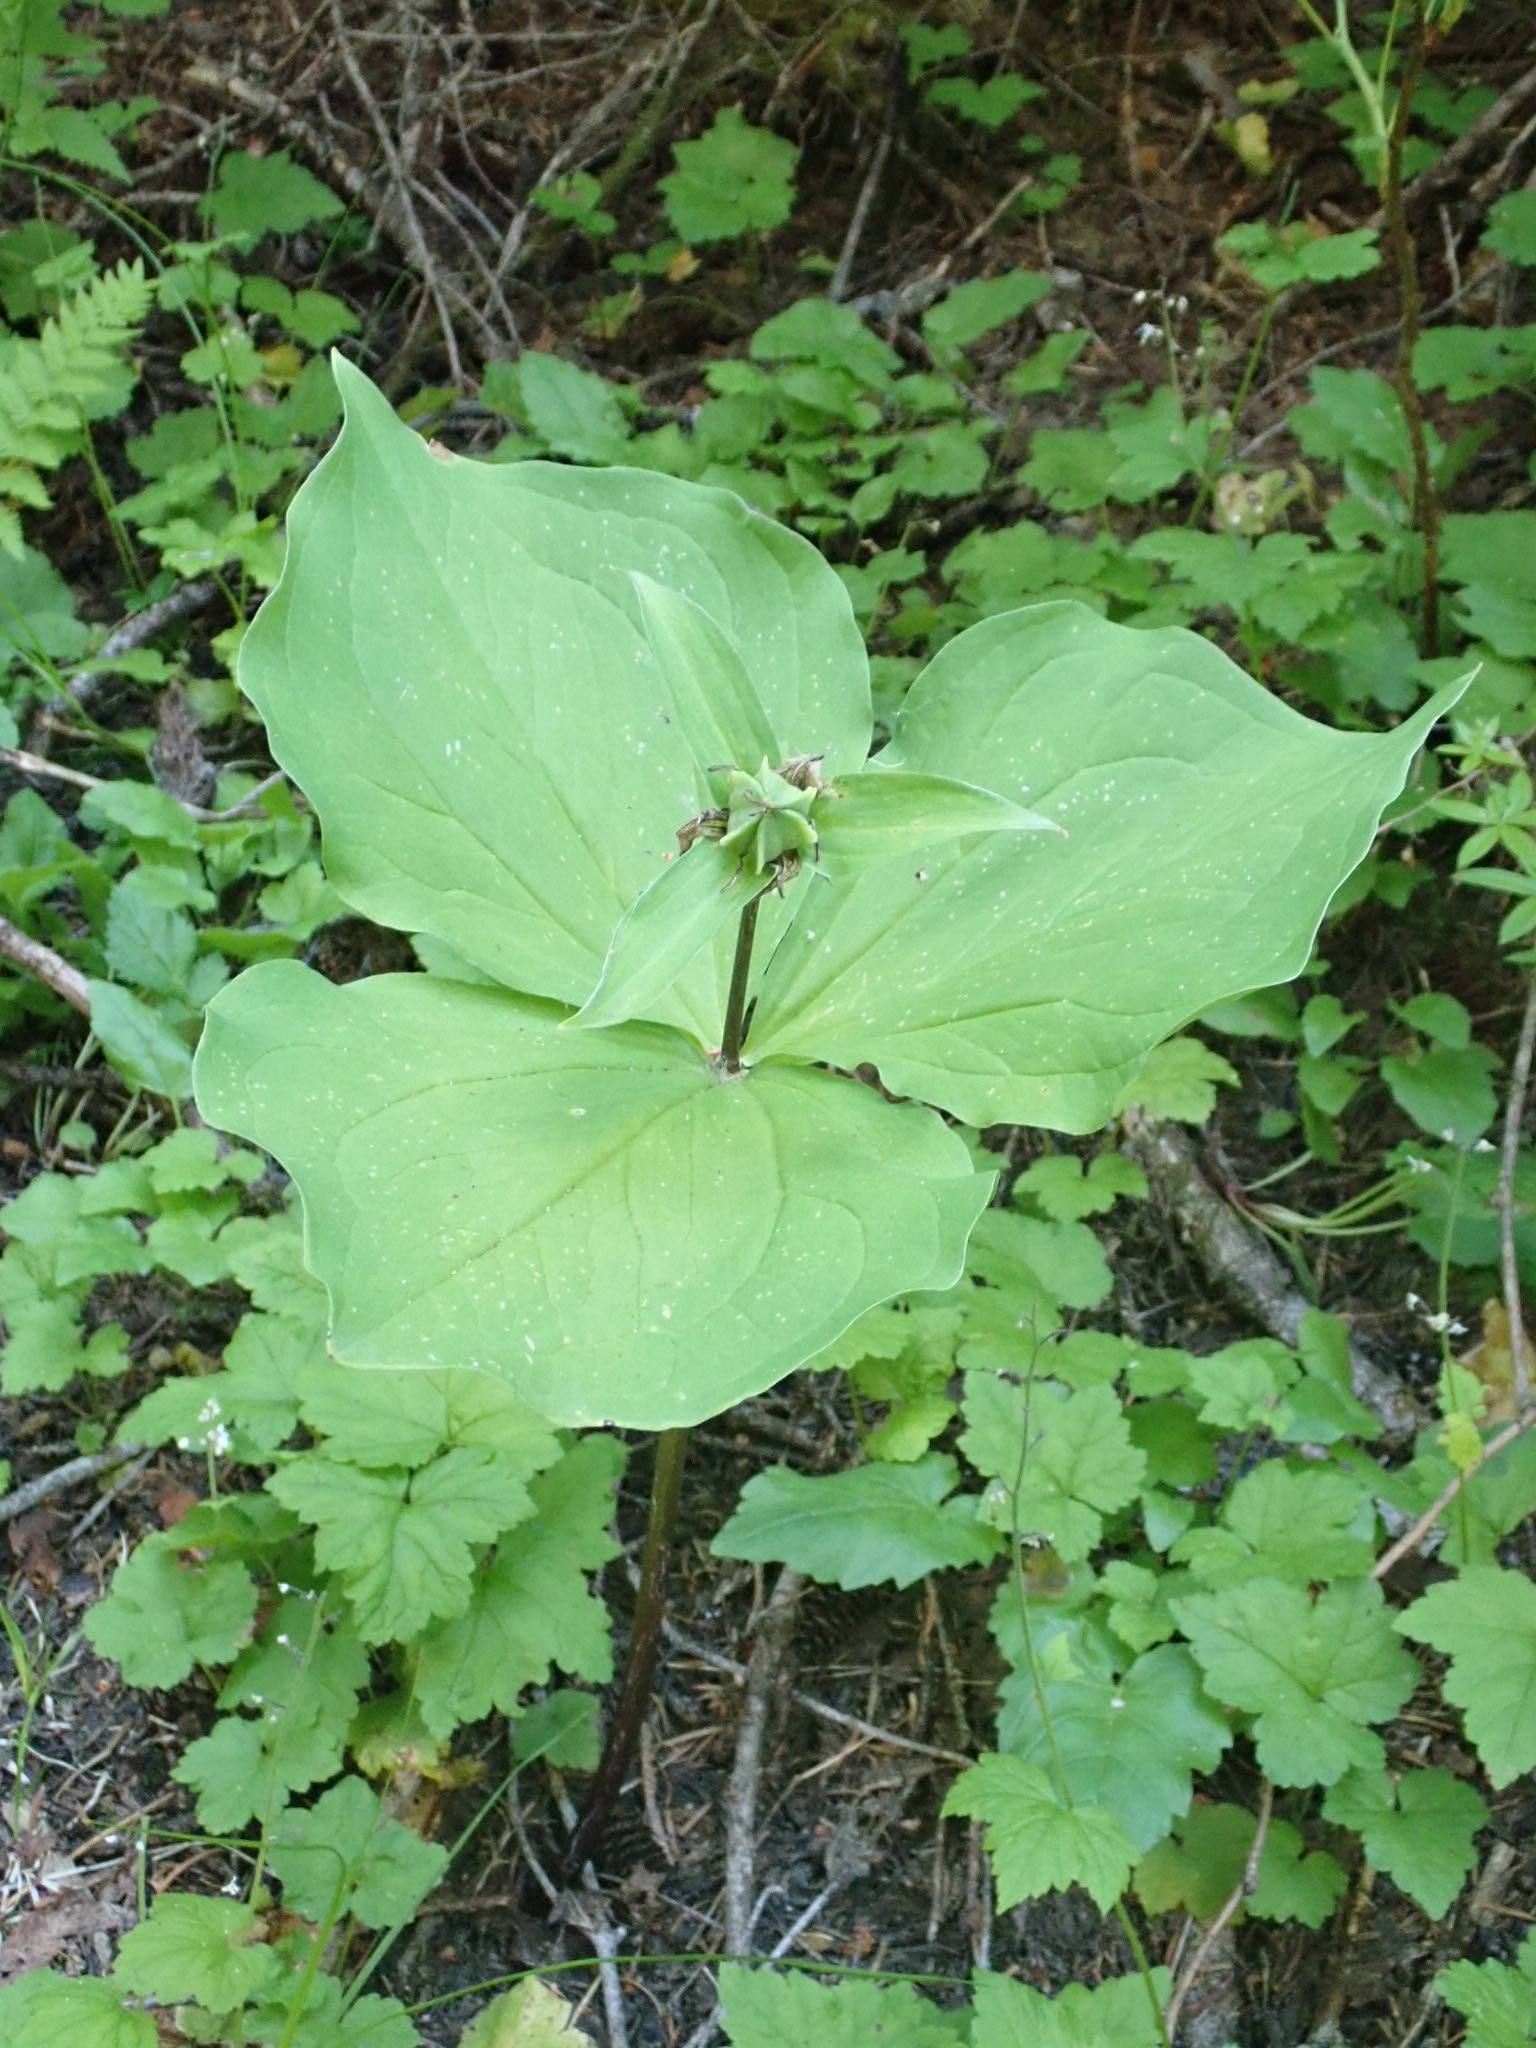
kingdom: Plantae
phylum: Tracheophyta
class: Liliopsida
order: Liliales
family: Melanthiaceae
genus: Trillium
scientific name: Trillium ovatum
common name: Pacific trillium
